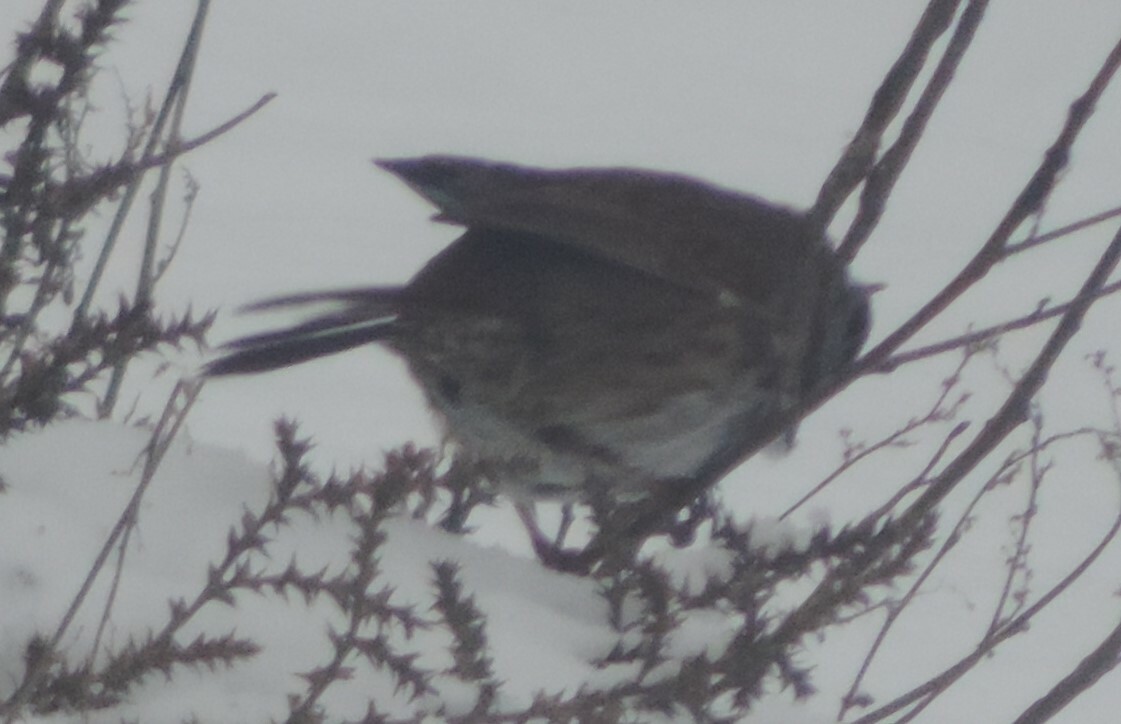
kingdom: Animalia
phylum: Chordata
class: Aves
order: Passeriformes
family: Passerellidae
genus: Melospiza
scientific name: Melospiza melodia
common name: Song sparrow
